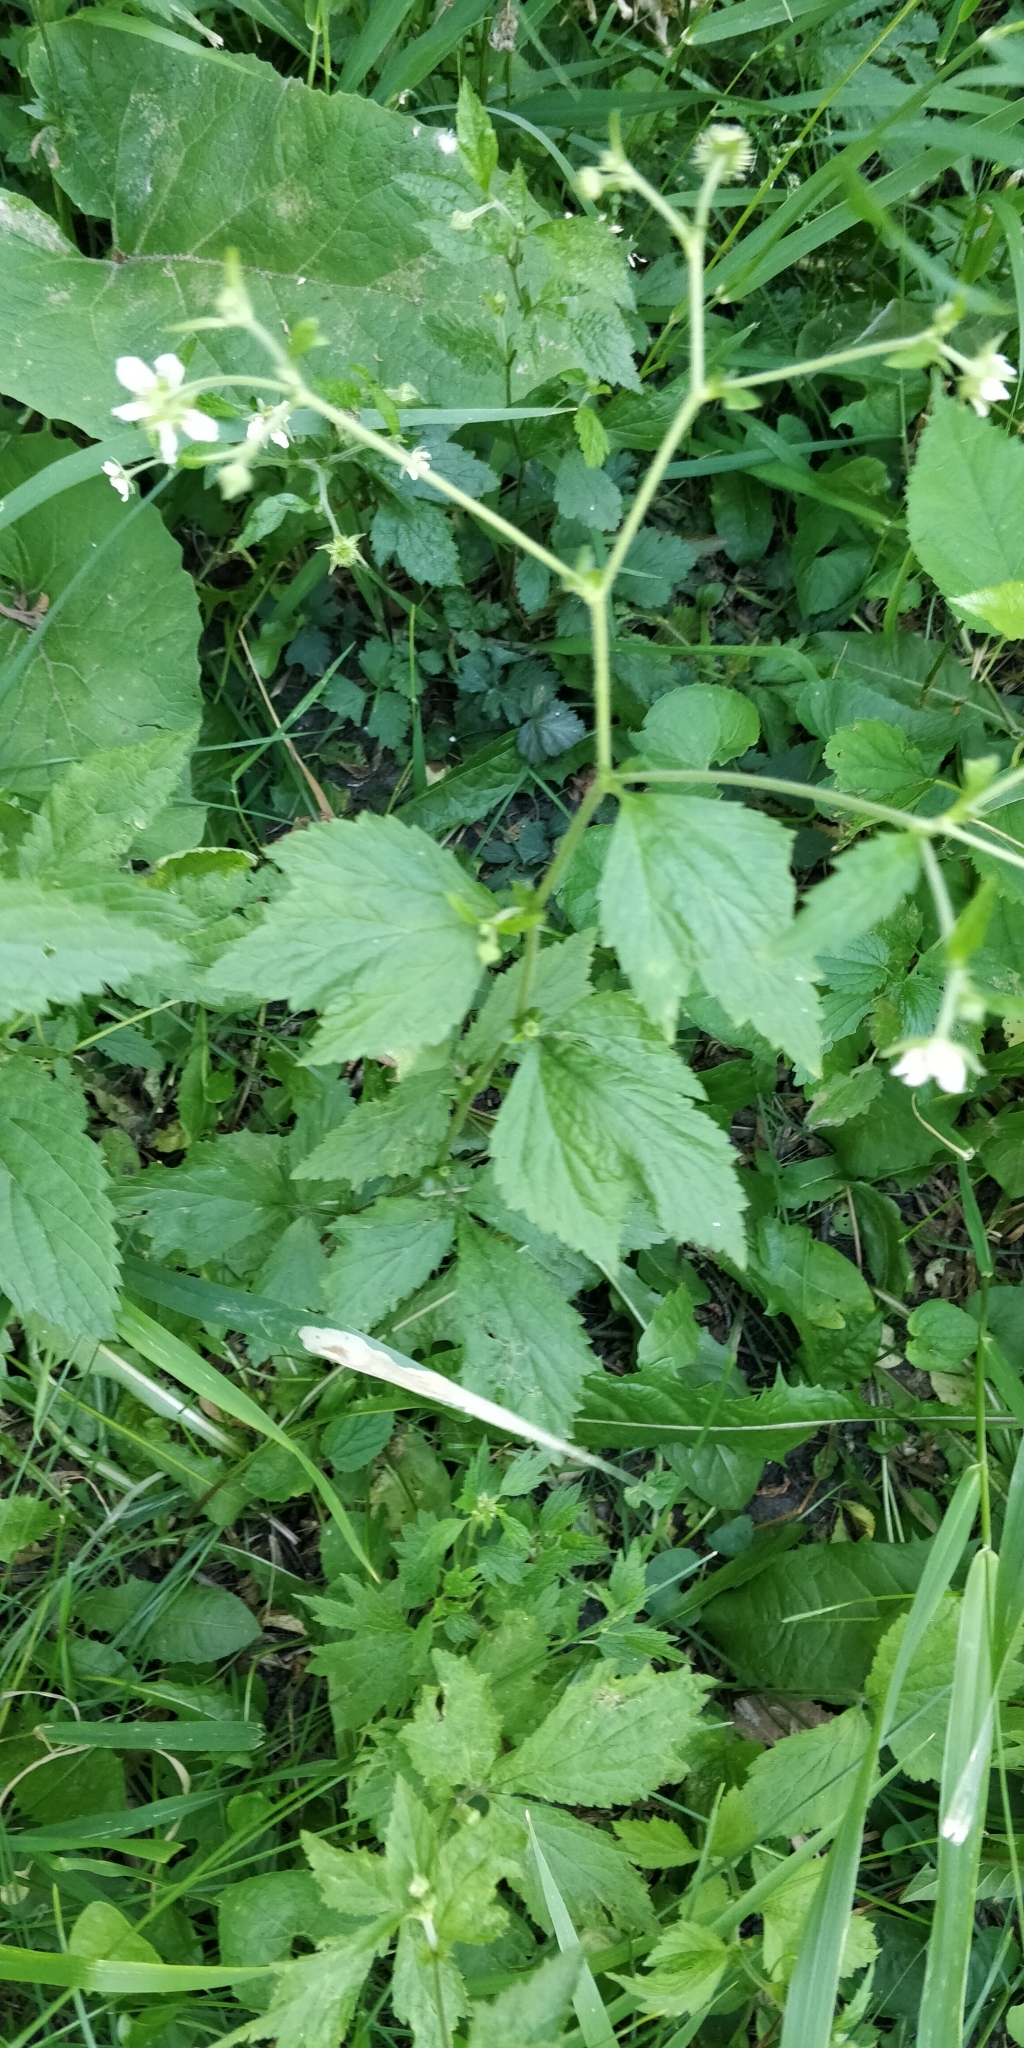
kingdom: Plantae
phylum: Tracheophyta
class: Magnoliopsida
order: Rosales
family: Rosaceae
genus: Geum
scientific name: Geum canadense
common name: White avens
